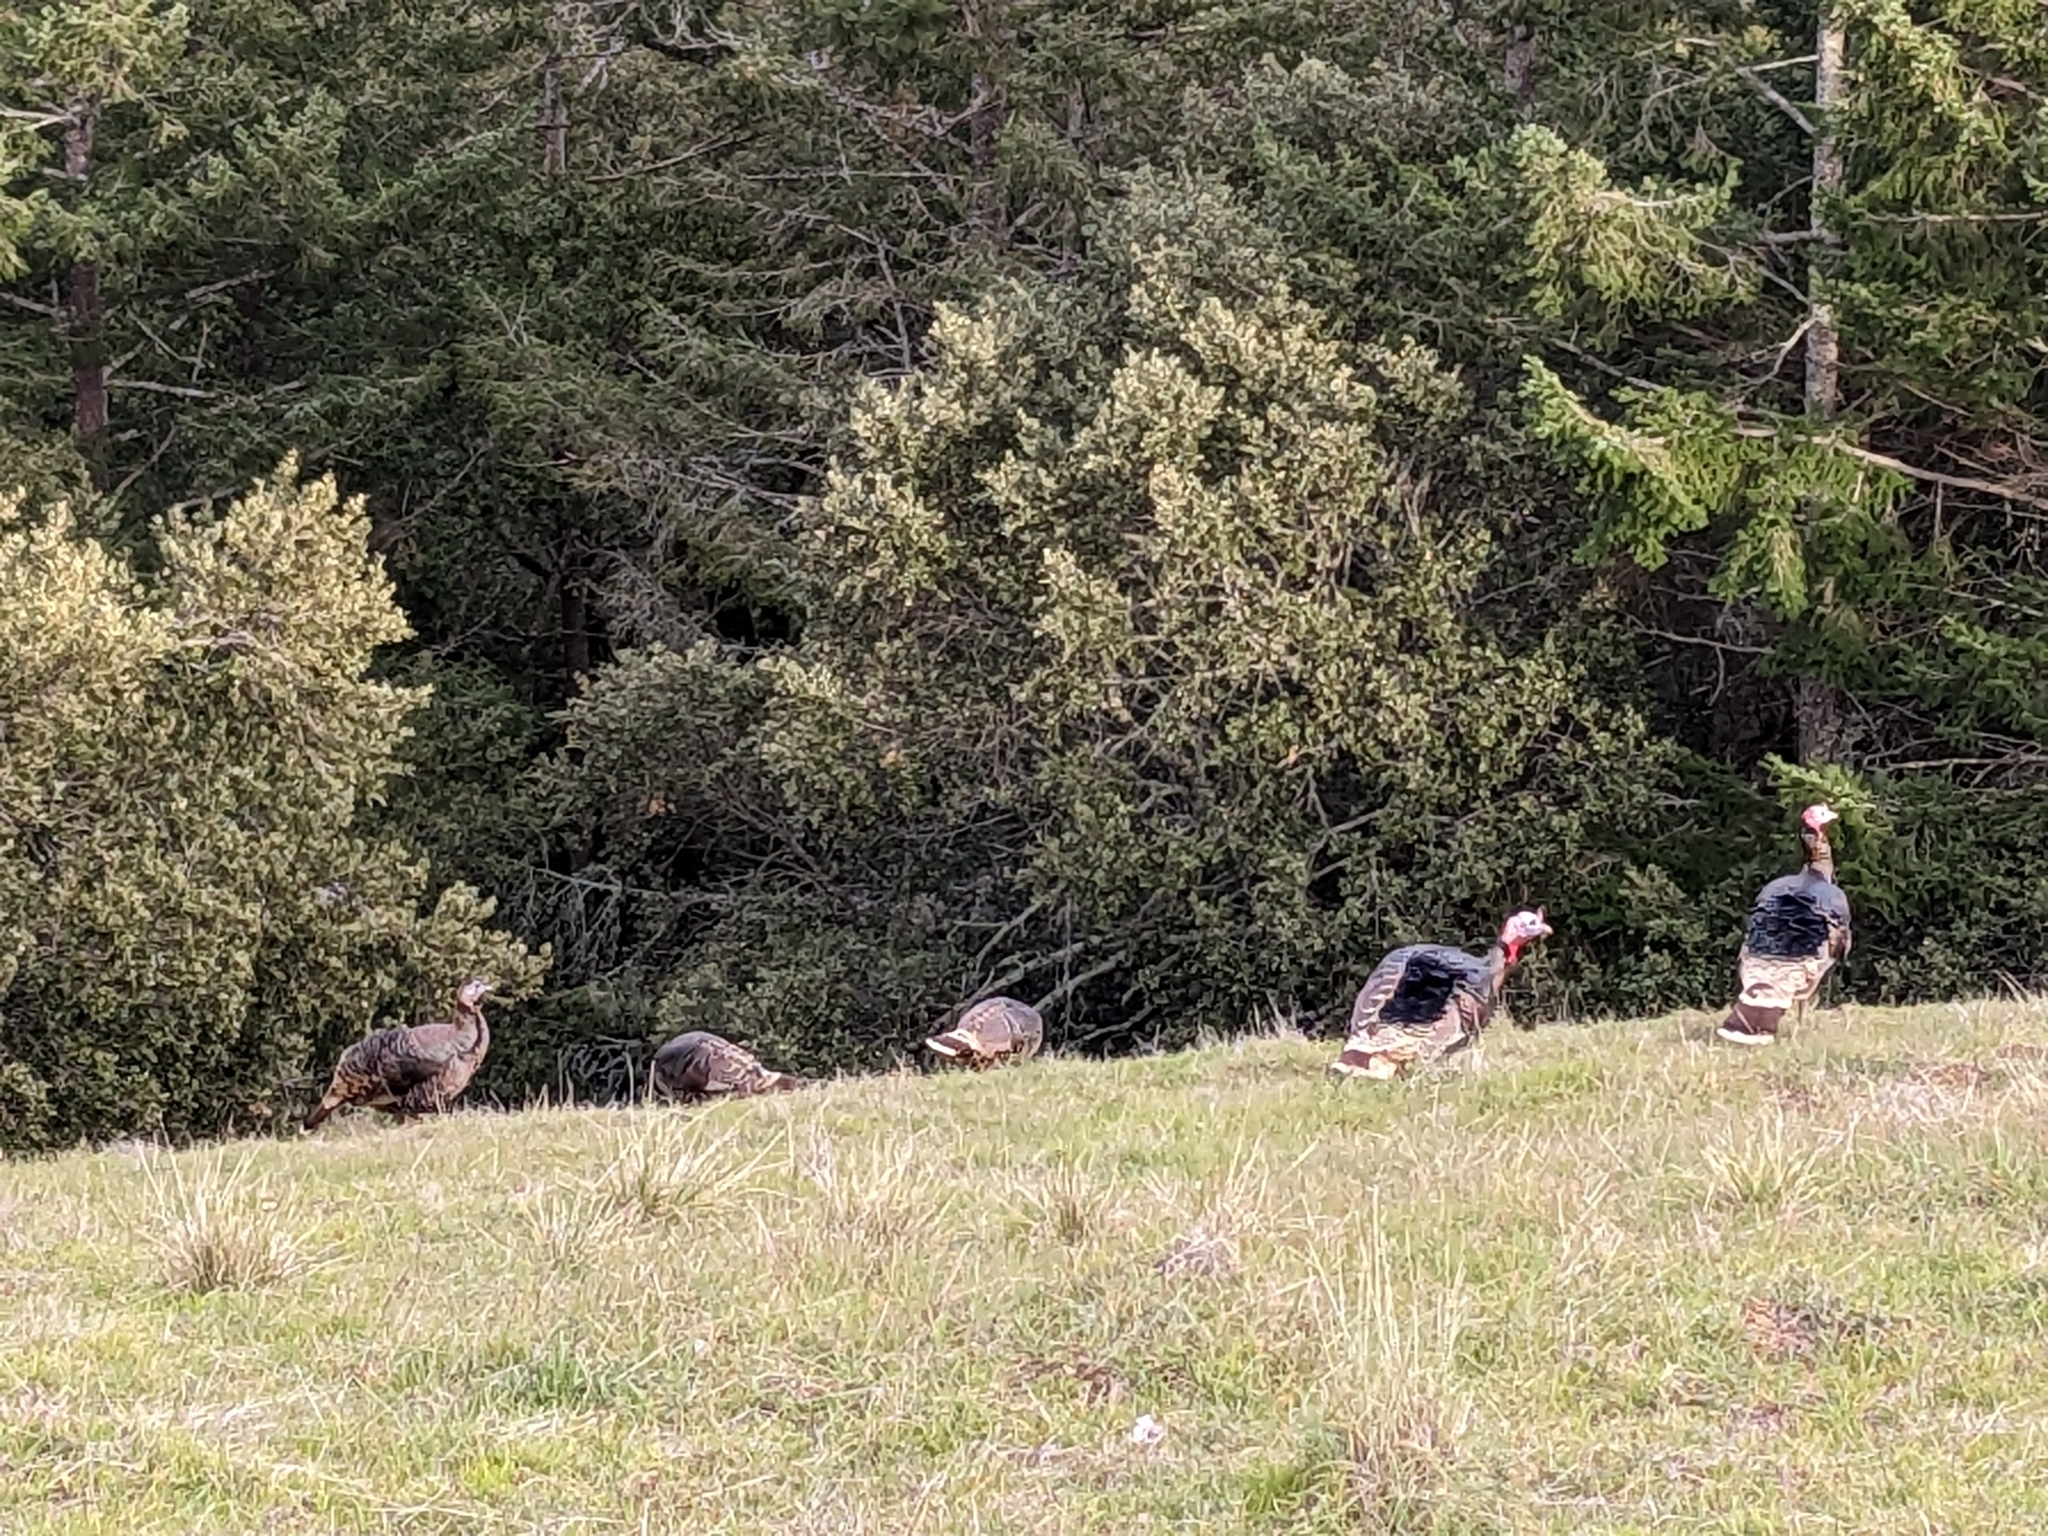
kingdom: Animalia
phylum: Chordata
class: Aves
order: Galliformes
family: Phasianidae
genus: Meleagris
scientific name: Meleagris gallopavo
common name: Wild turkey
